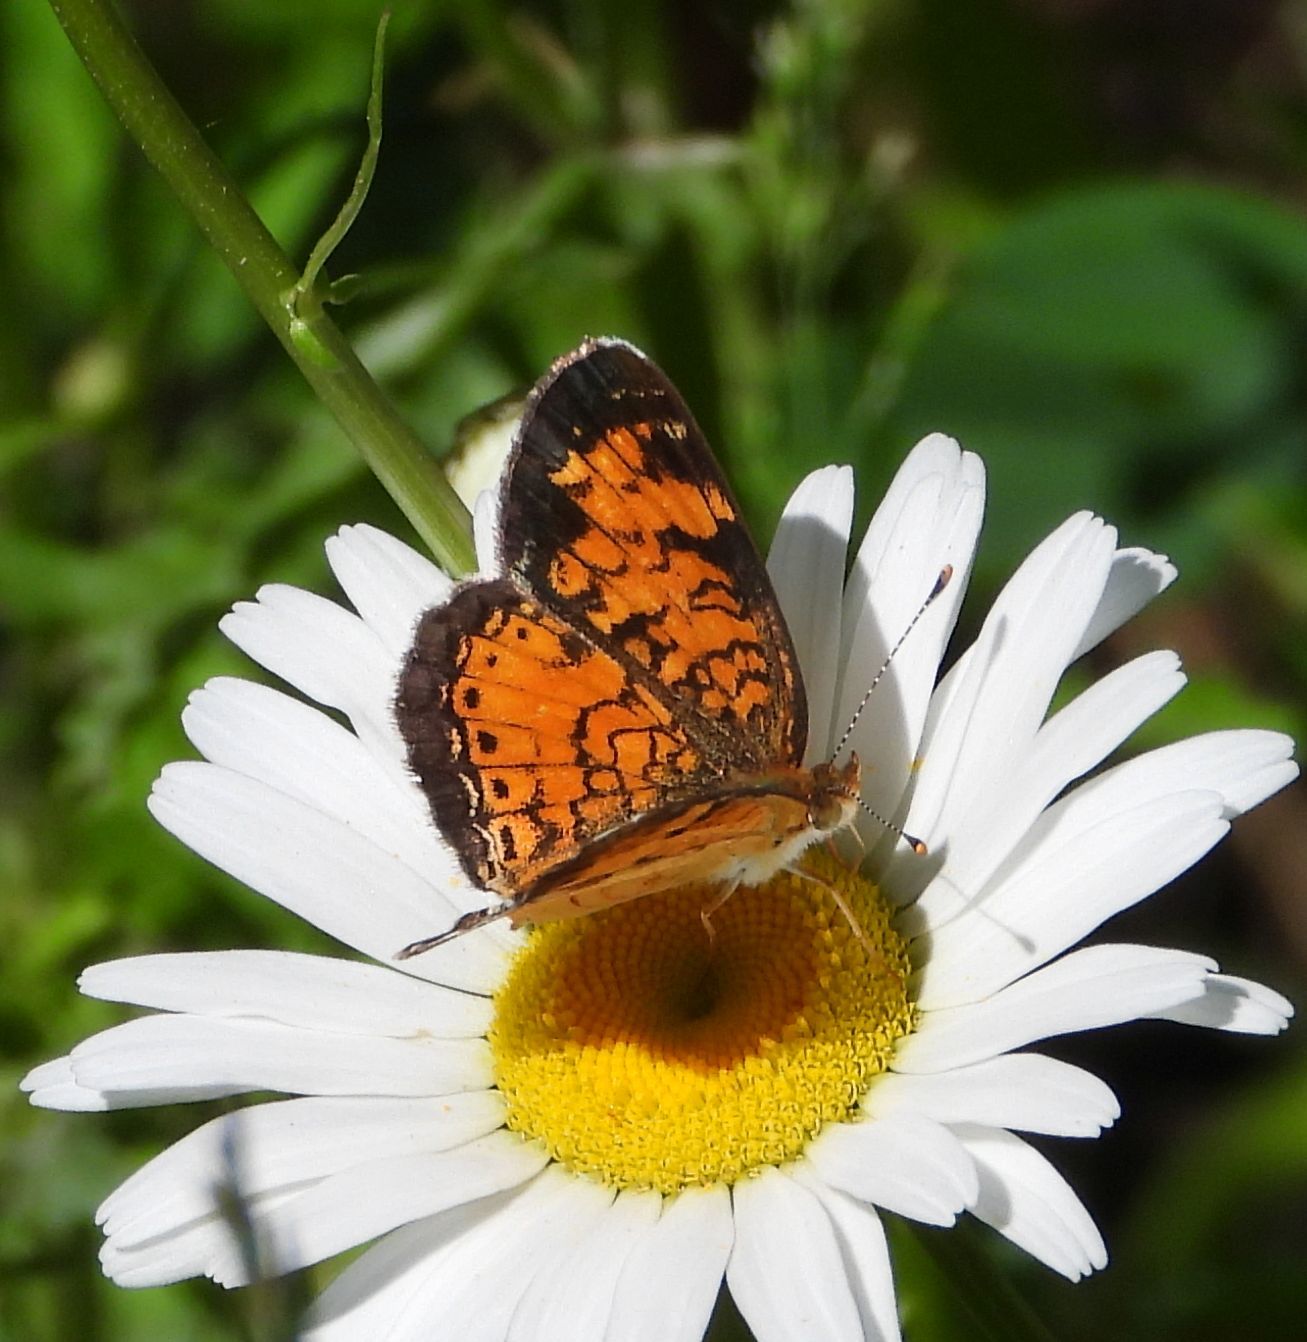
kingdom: Animalia
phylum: Arthropoda
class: Insecta
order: Lepidoptera
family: Nymphalidae
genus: Phyciodes
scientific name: Phyciodes tharos
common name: Pearl crescent
